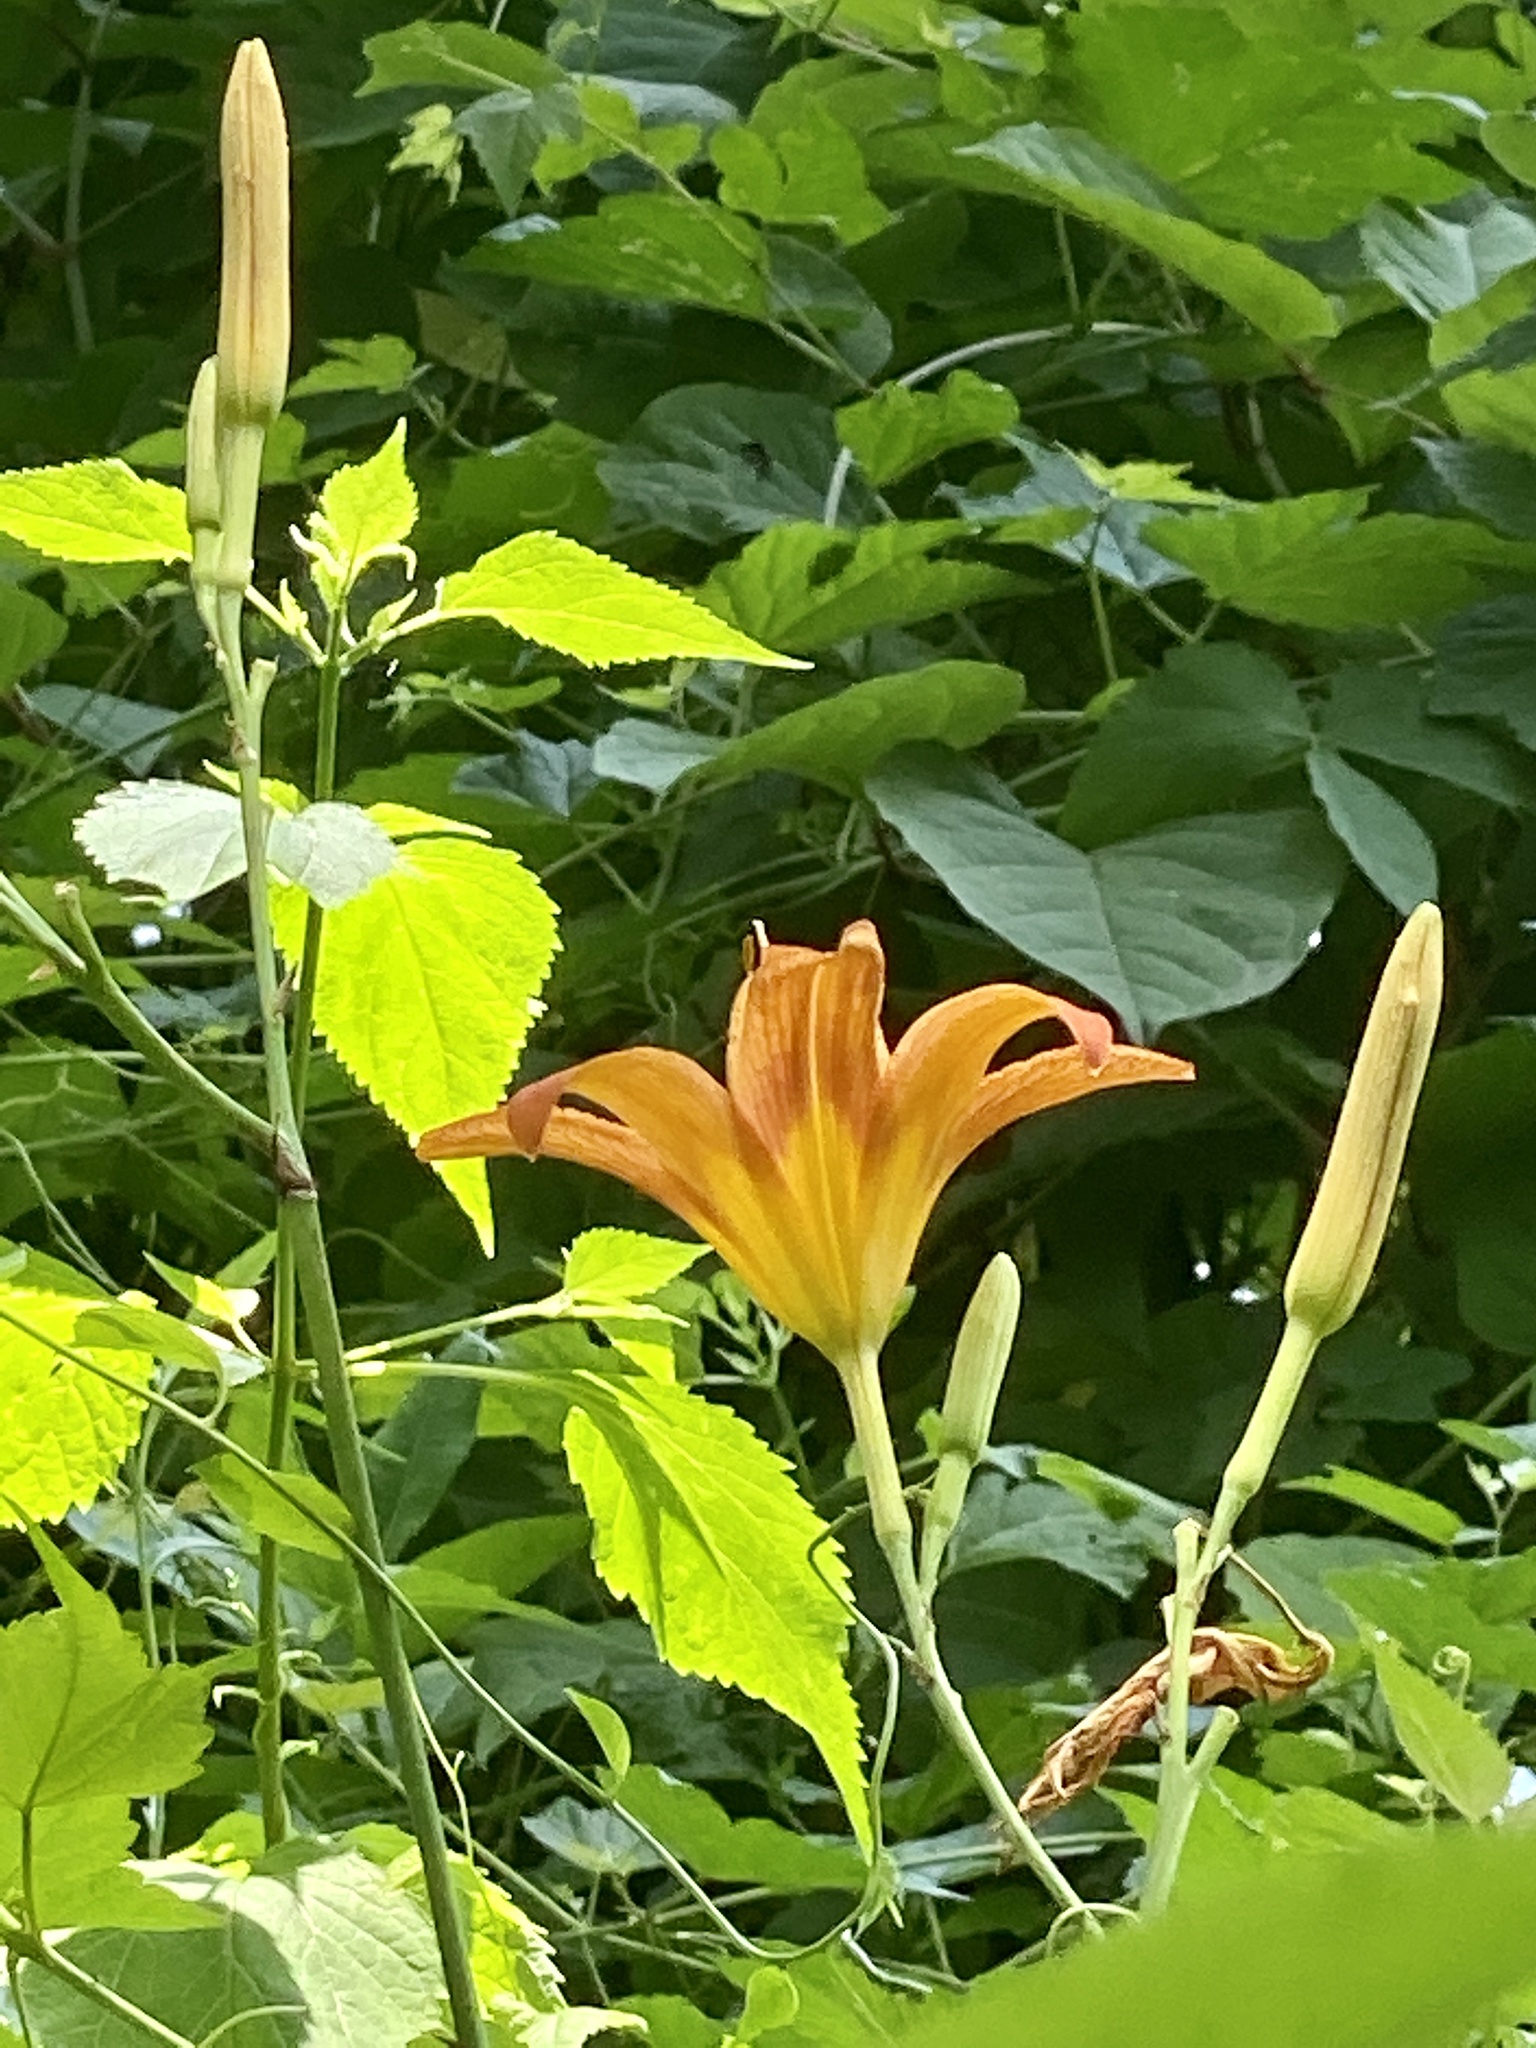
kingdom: Plantae
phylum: Tracheophyta
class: Liliopsida
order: Asparagales
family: Asphodelaceae
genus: Hemerocallis
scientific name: Hemerocallis fulva
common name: Orange day-lily
